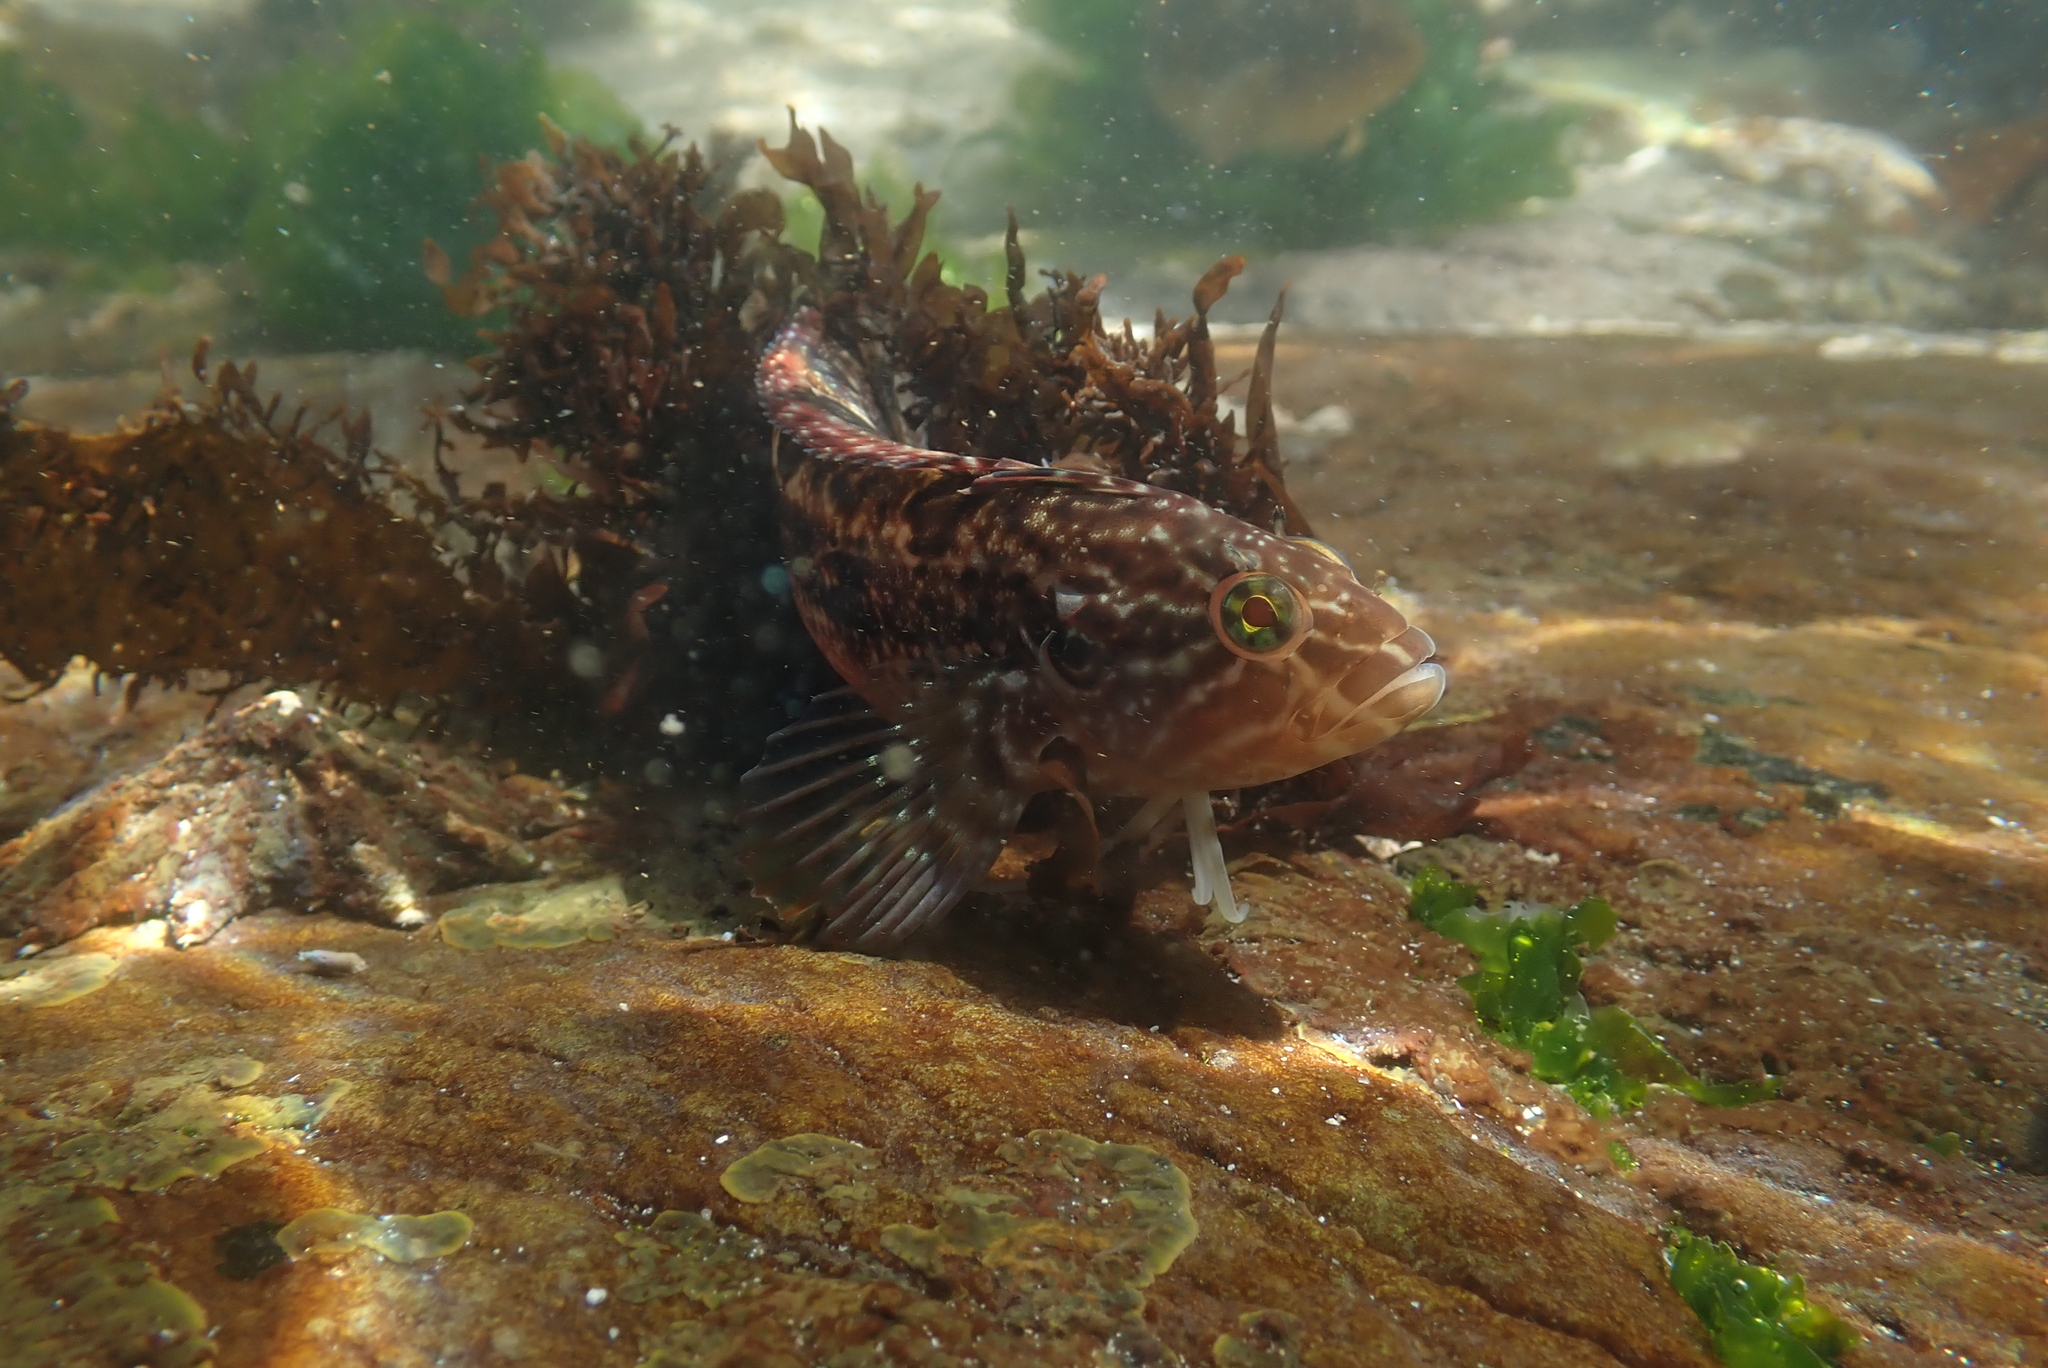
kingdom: Animalia
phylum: Chordata
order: Perciformes
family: Clinidae
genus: Clinus
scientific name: Clinus superciliosus
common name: Super klipfish
